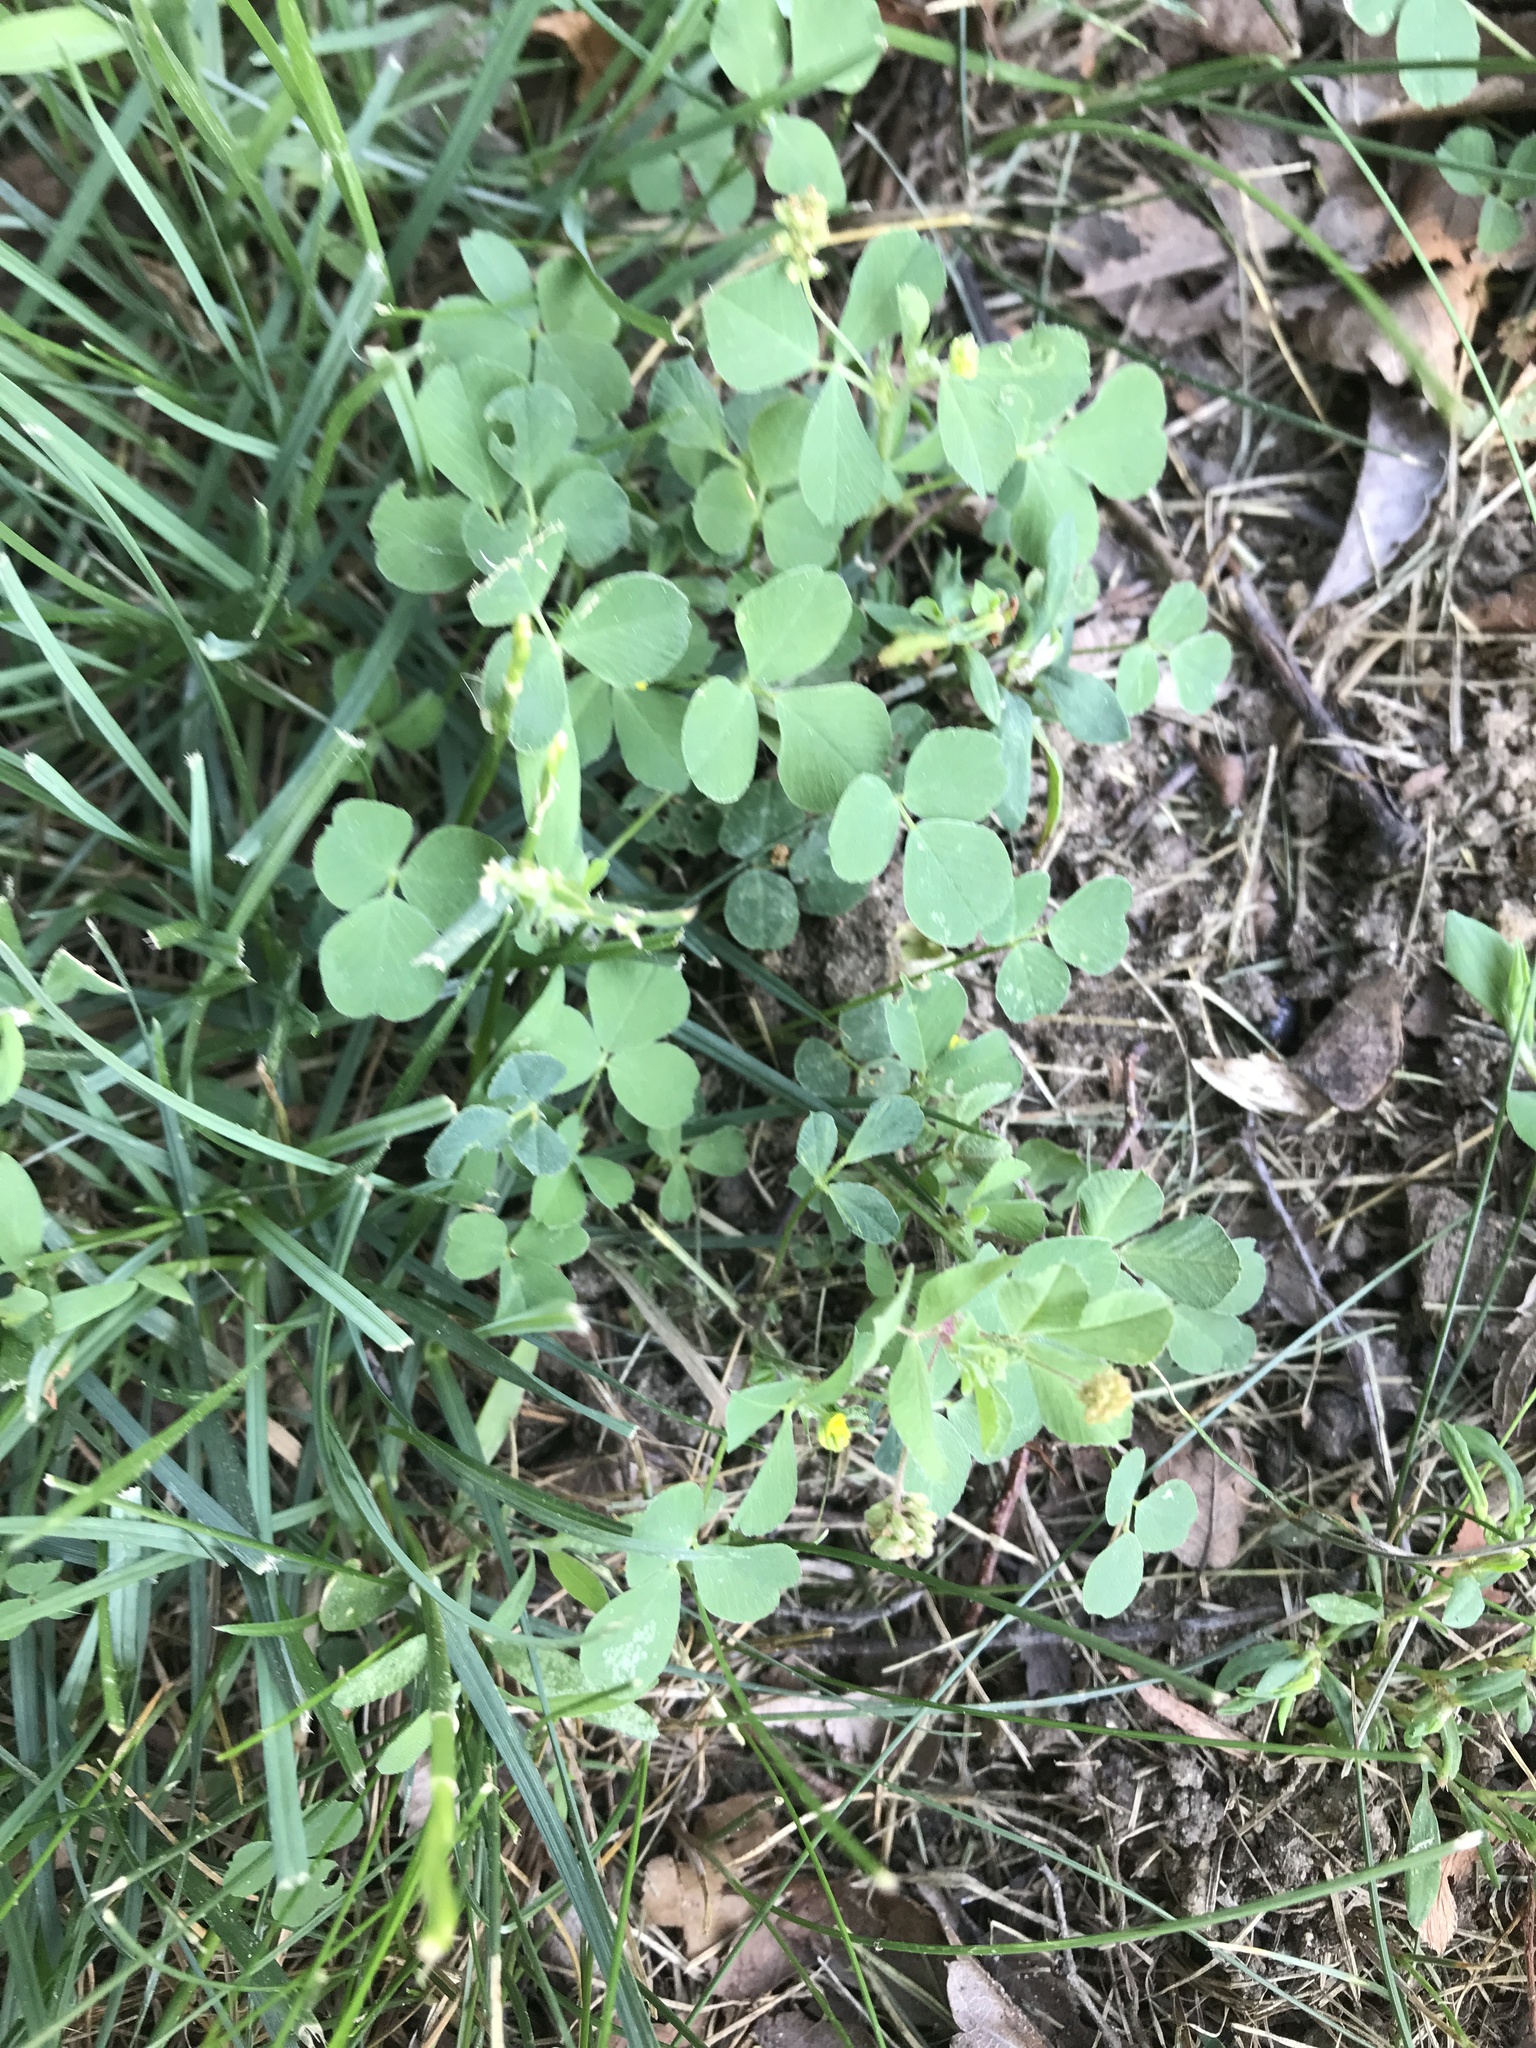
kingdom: Plantae
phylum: Tracheophyta
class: Magnoliopsida
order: Fabales
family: Fabaceae
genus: Medicago
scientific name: Medicago lupulina
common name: Black medick
